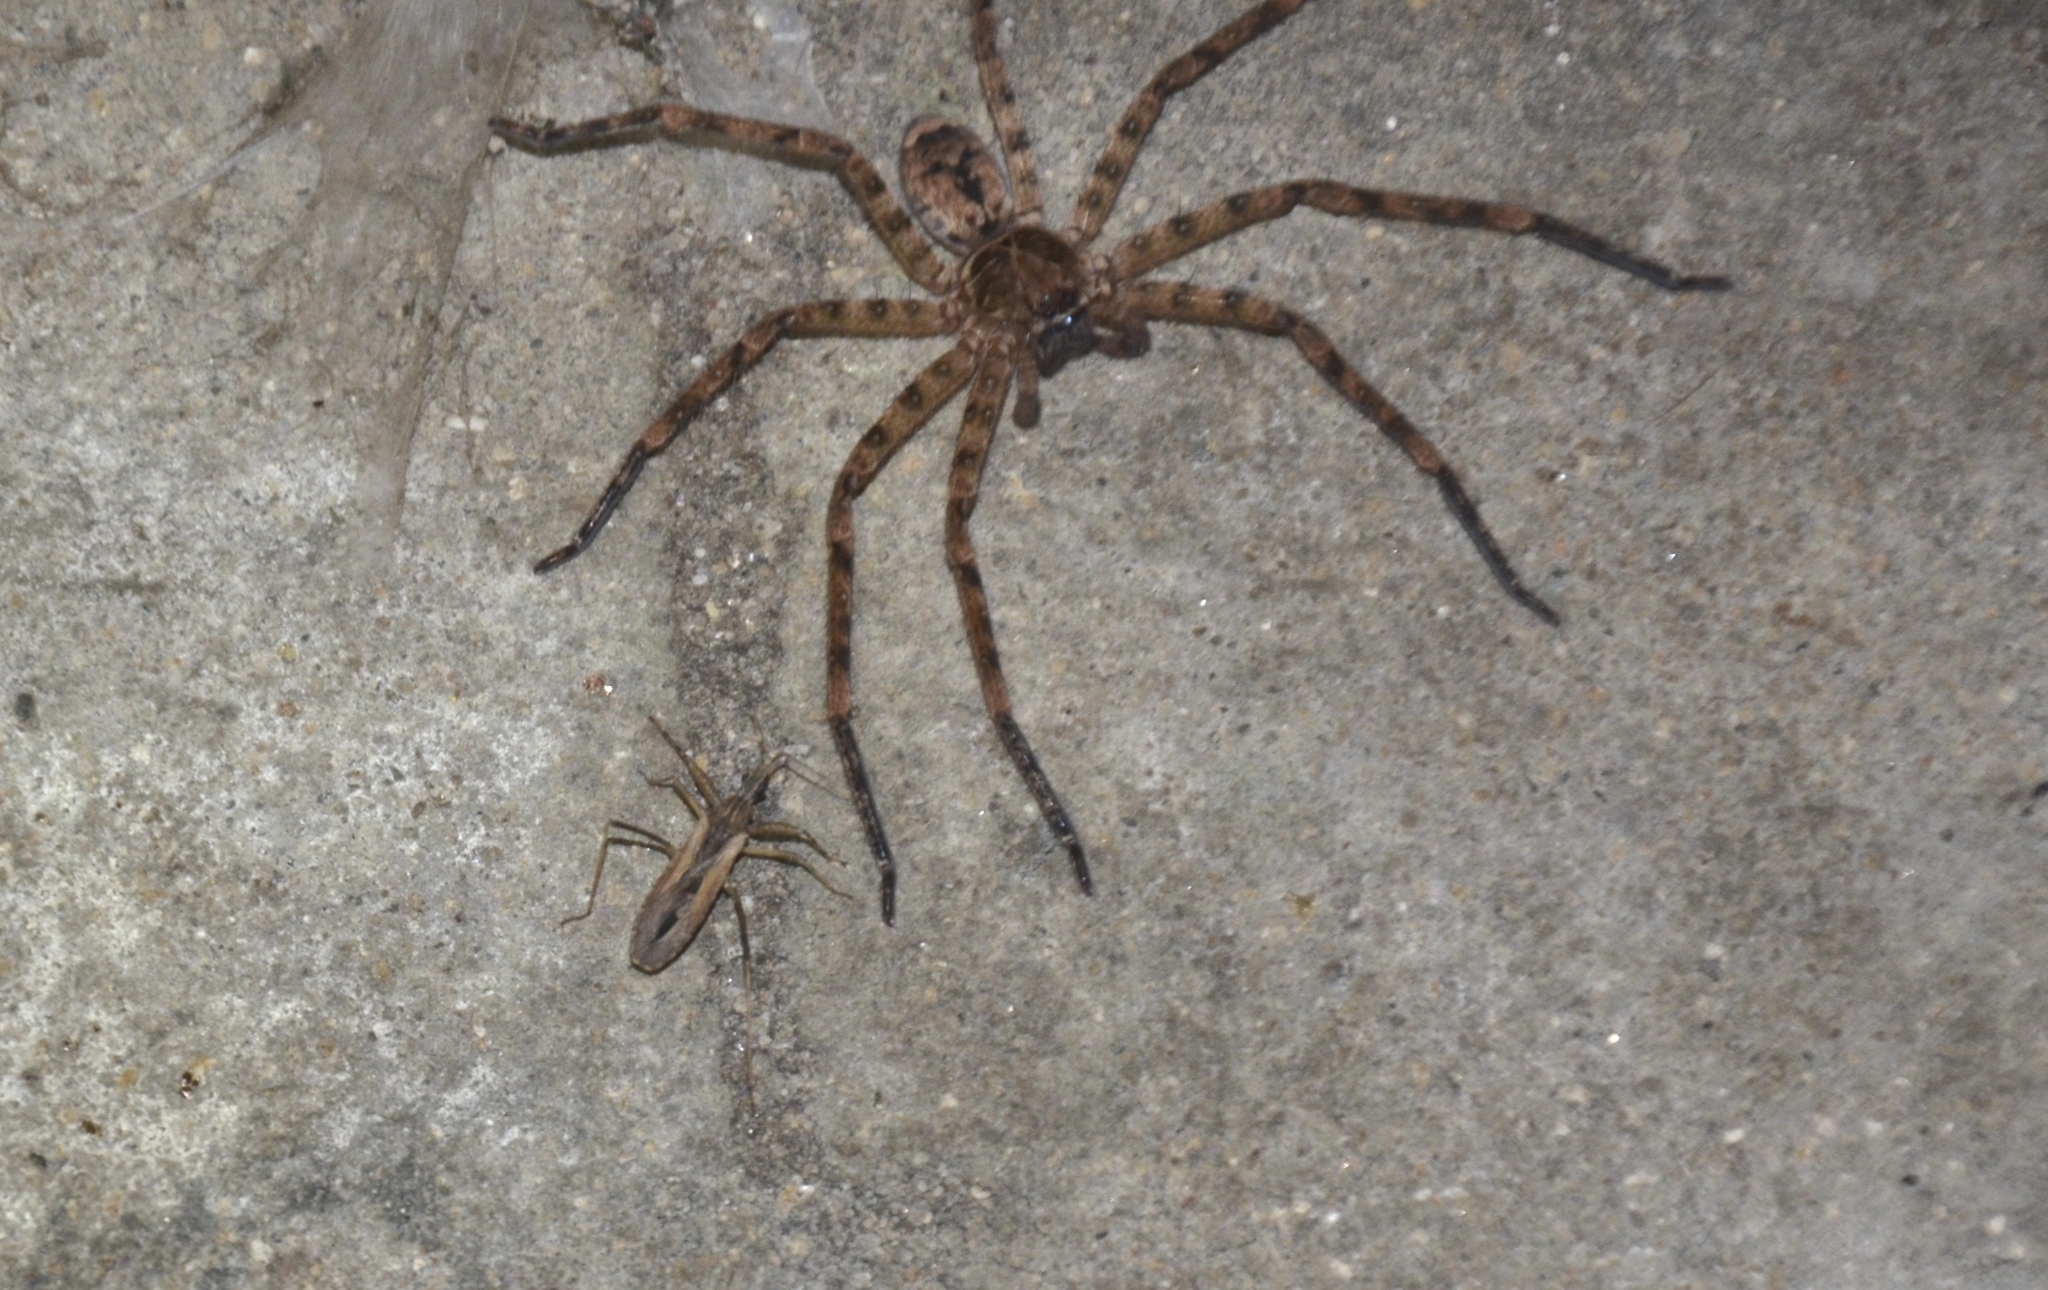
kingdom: Animalia
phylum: Arthropoda
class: Arachnida
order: Araneae
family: Sparassidae
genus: Heteropoda
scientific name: Heteropoda venatoria
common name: Huntsman spider
